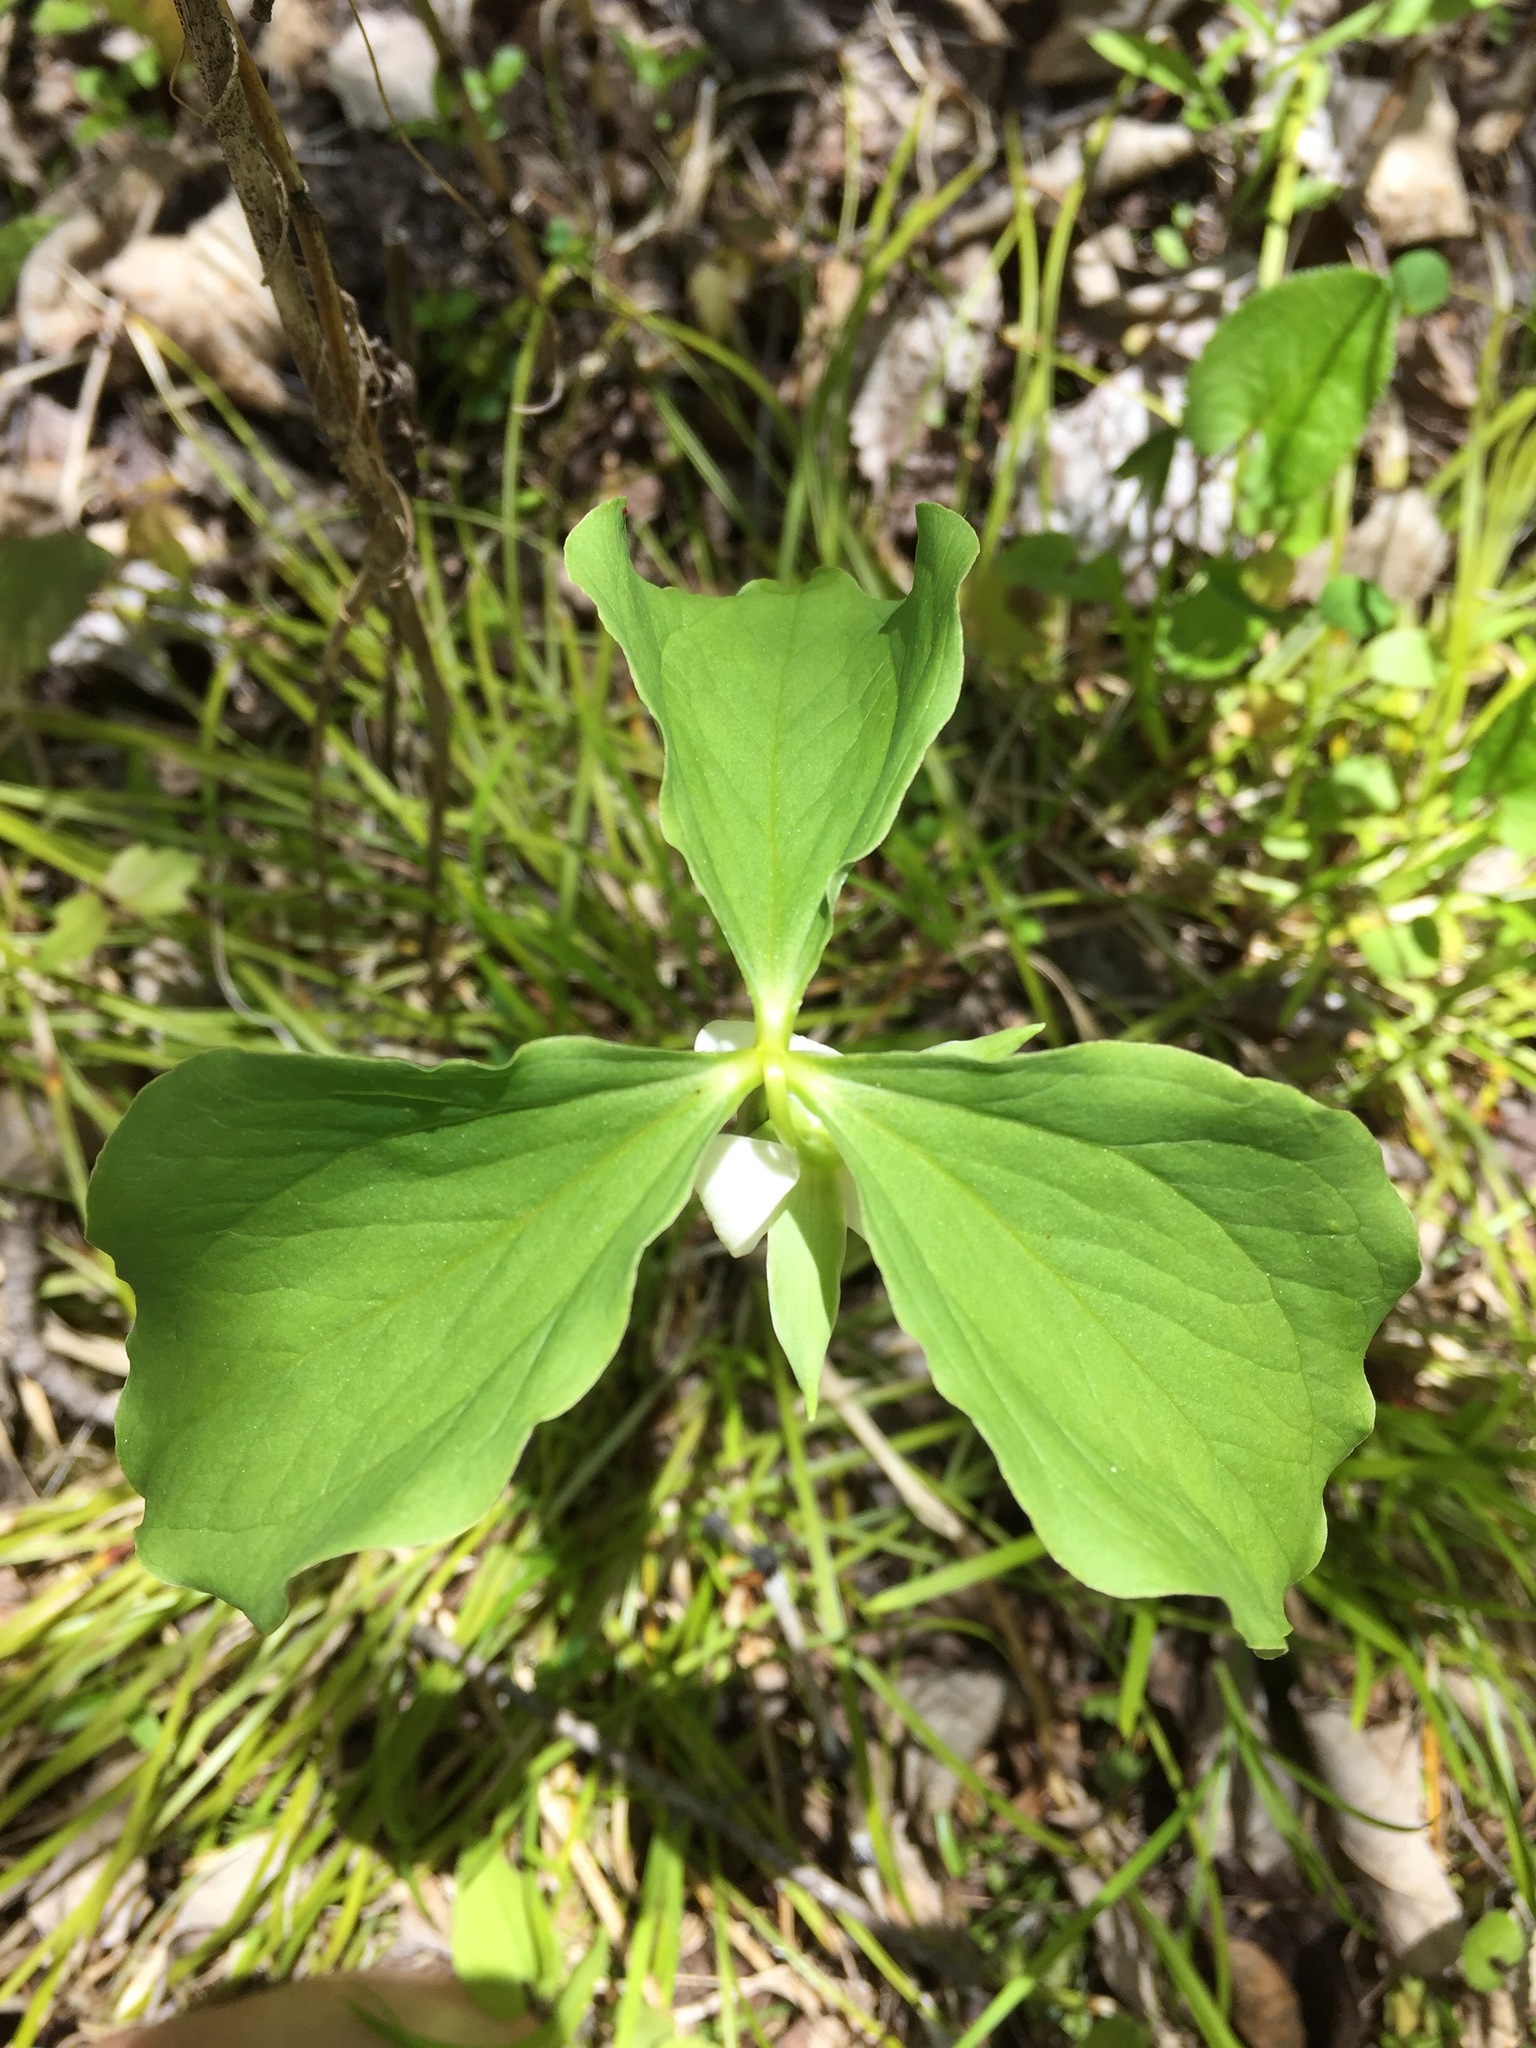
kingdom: Plantae
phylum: Tracheophyta
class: Liliopsida
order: Liliales
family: Melanthiaceae
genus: Trillium
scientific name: Trillium cernuum
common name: Nodding trillium
